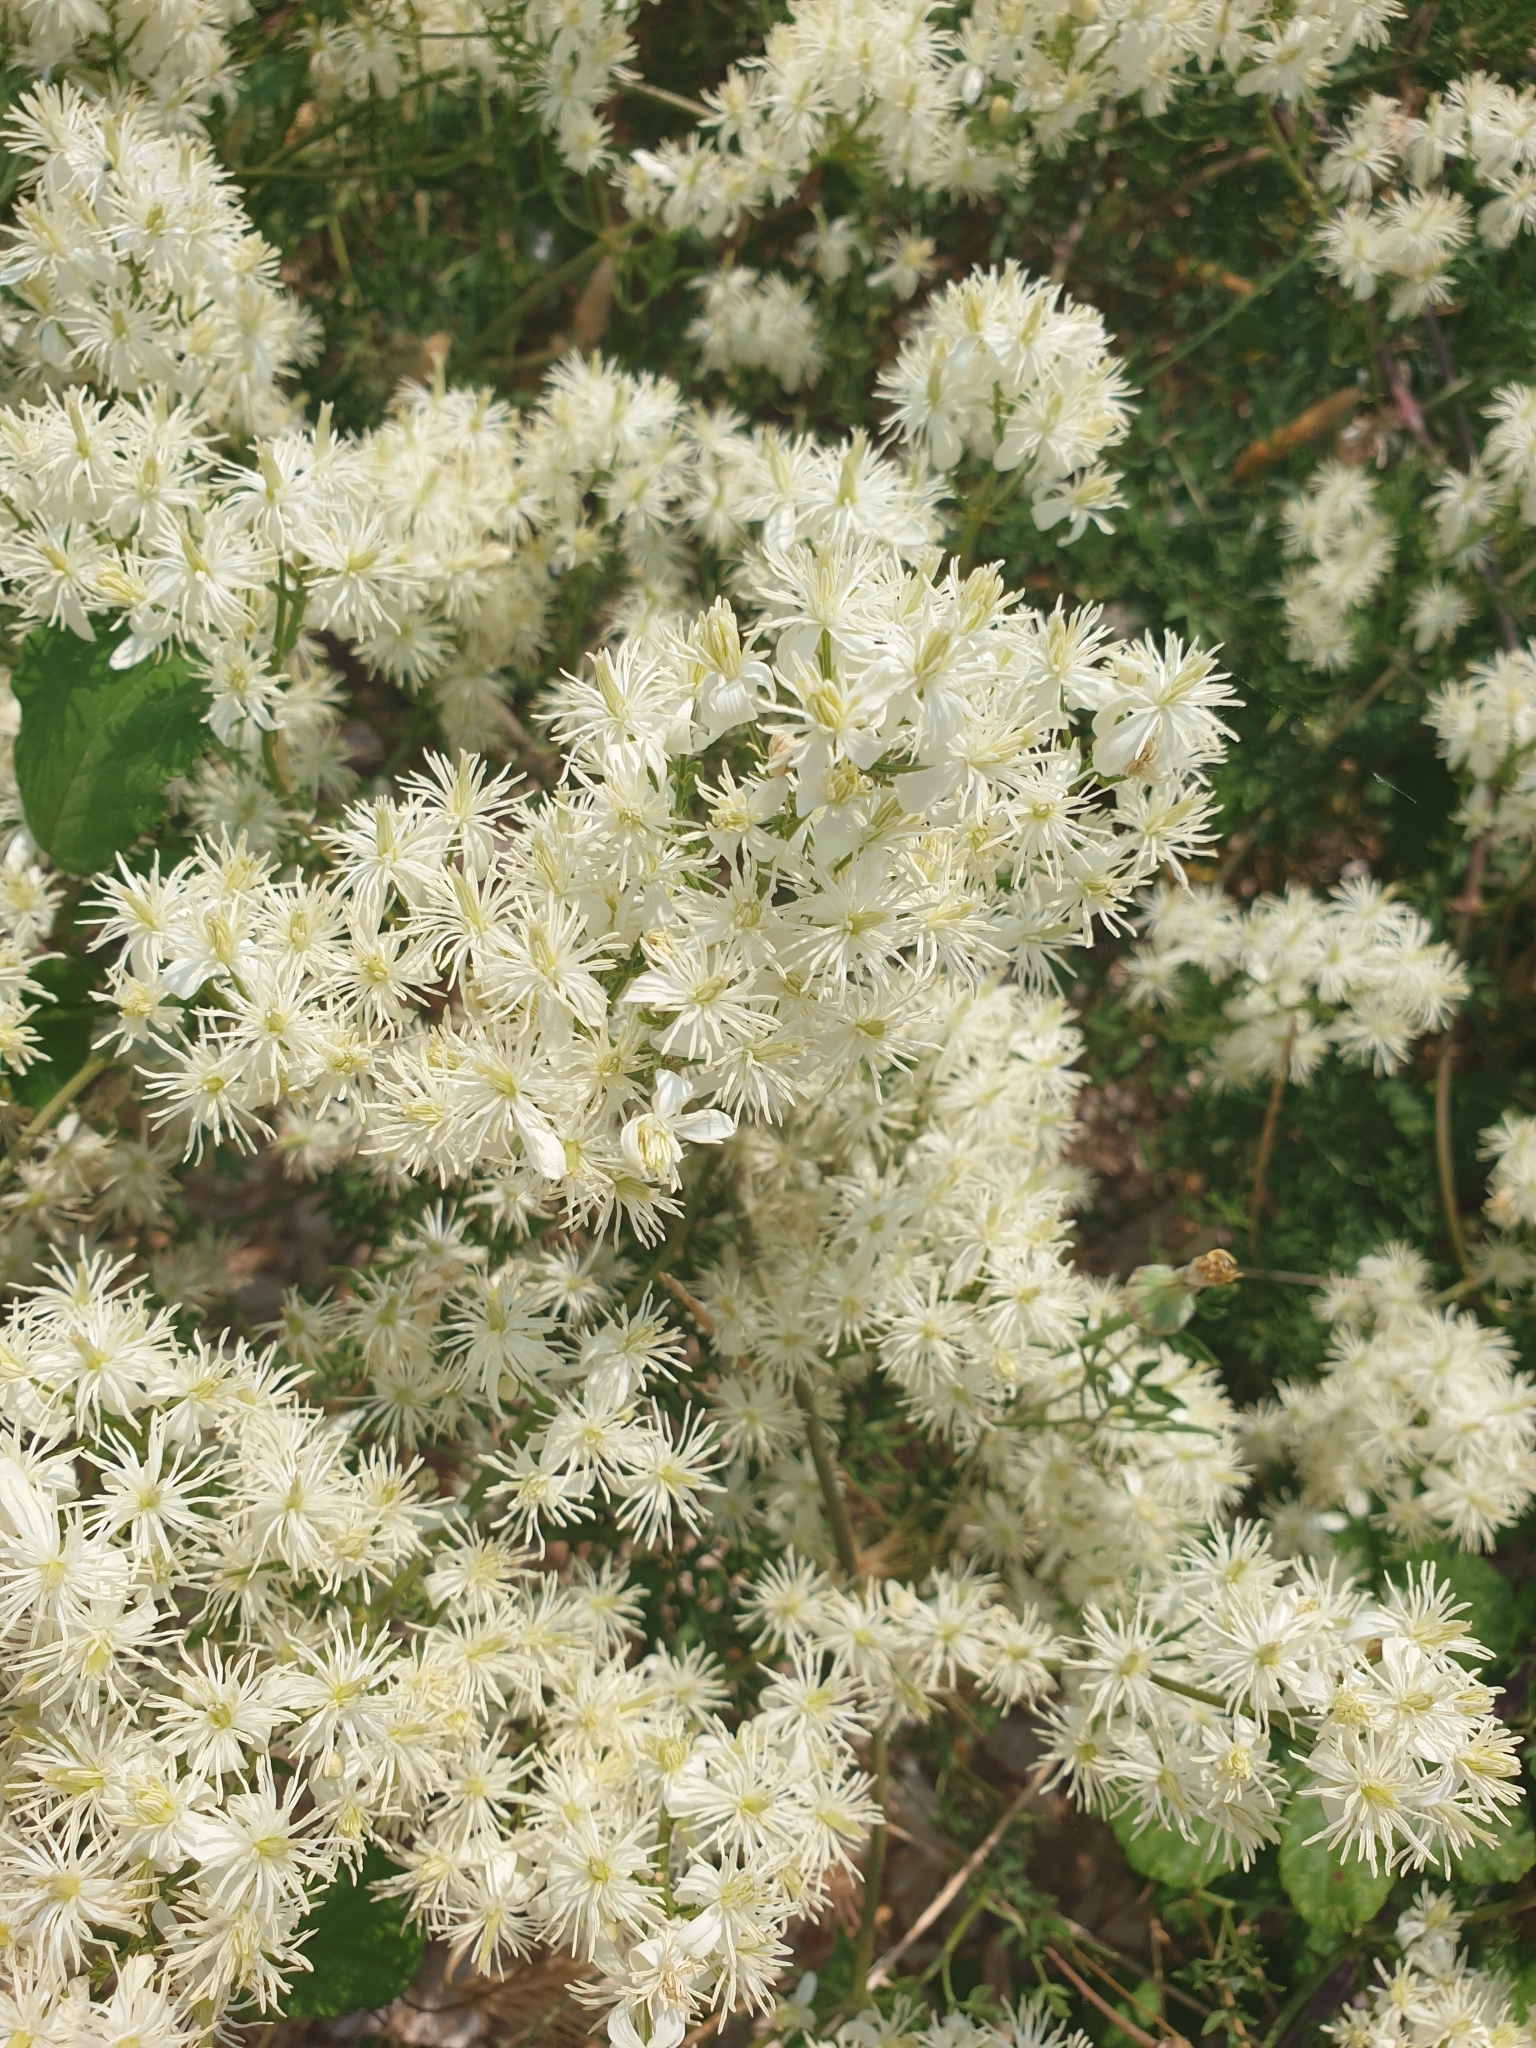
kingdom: Plantae
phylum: Tracheophyta
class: Magnoliopsida
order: Ranunculales
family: Ranunculaceae
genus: Clematis
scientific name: Clematis flammula
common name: Virgin's-bower
